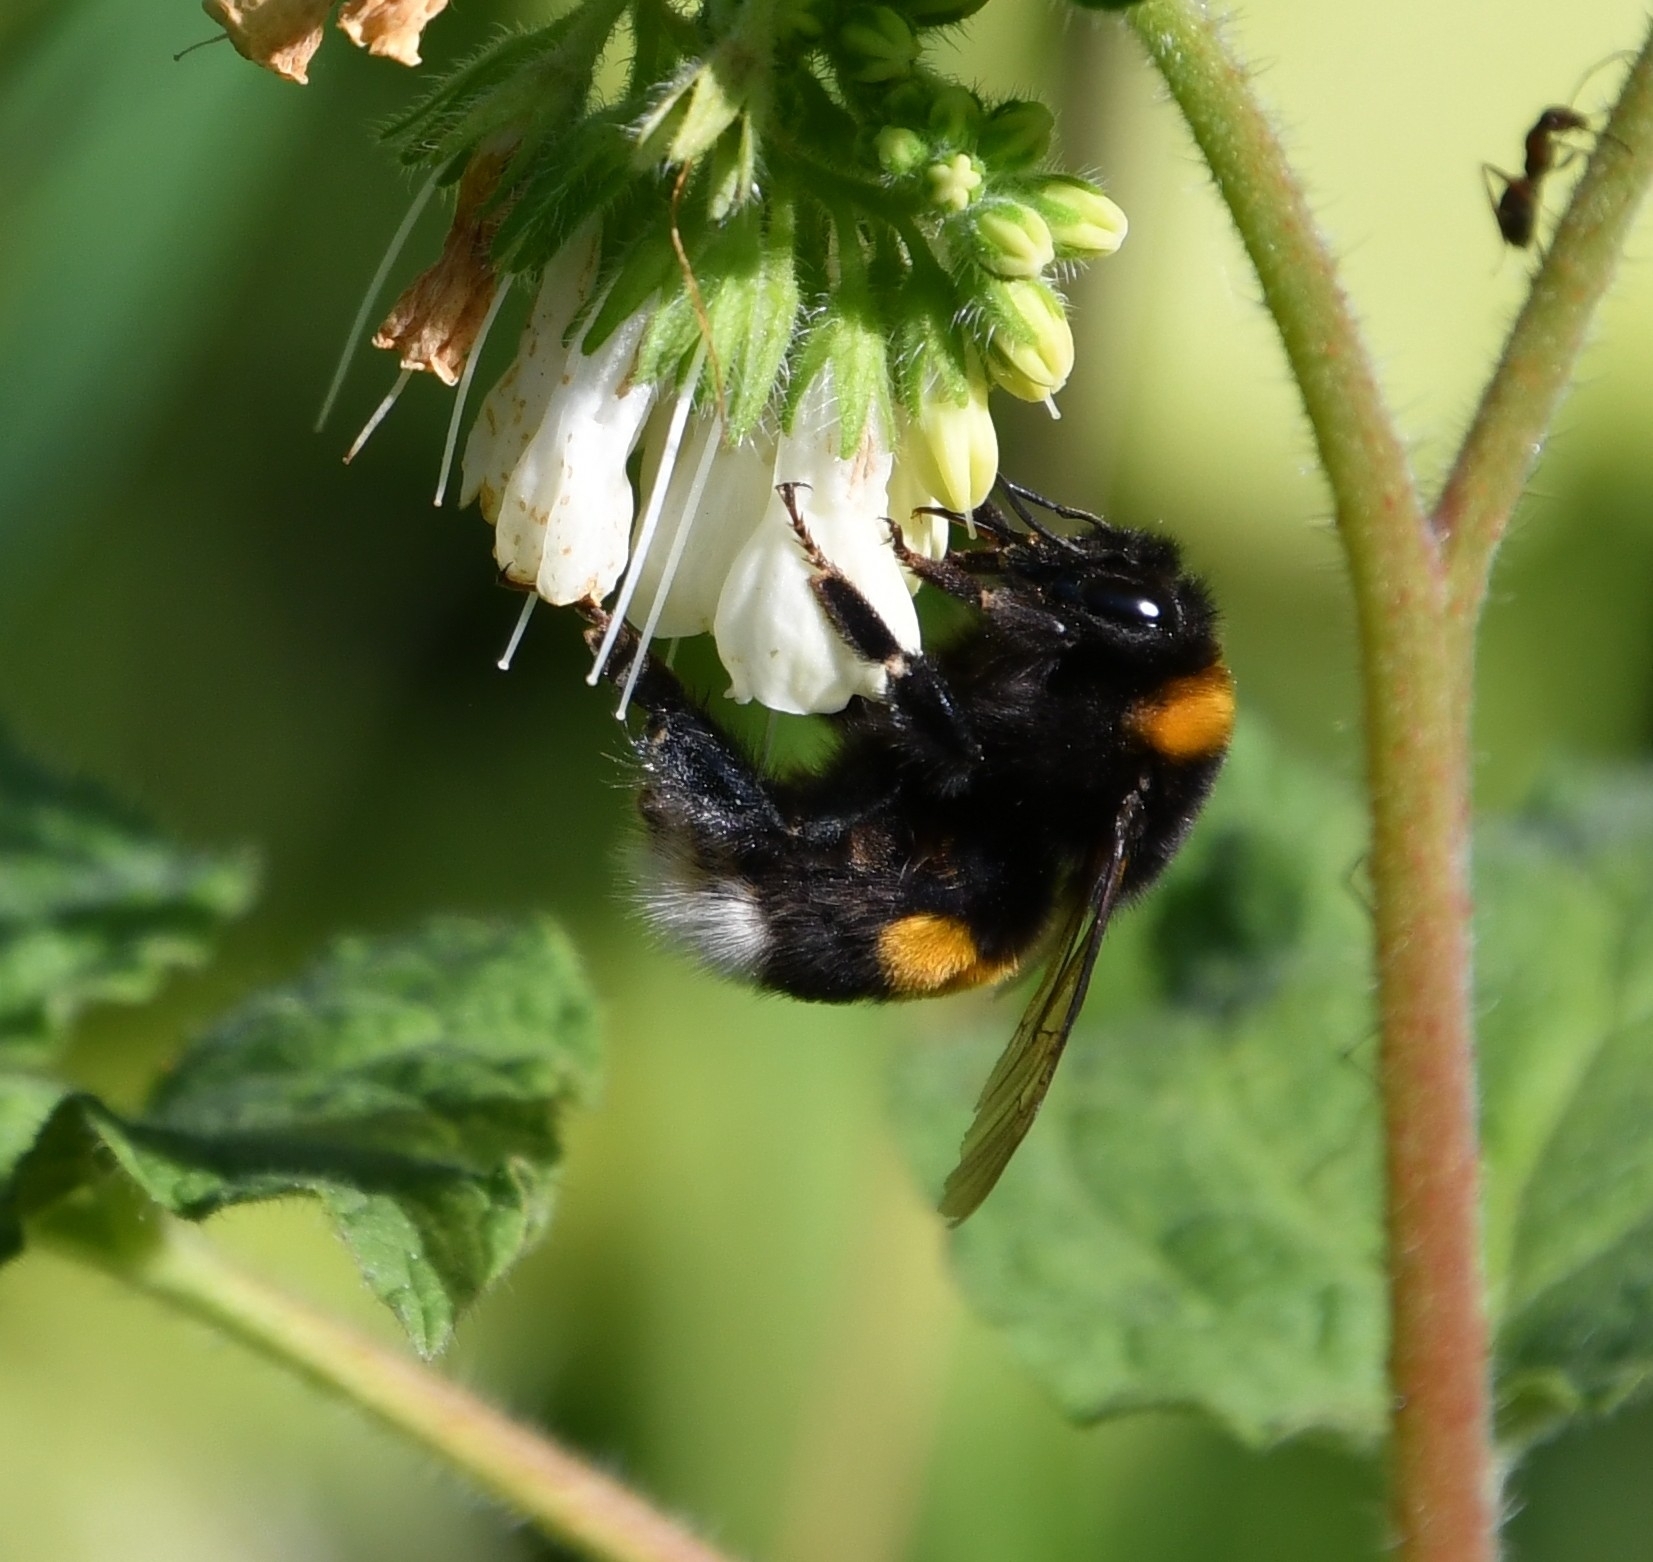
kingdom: Animalia
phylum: Arthropoda
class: Insecta
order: Hymenoptera
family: Apidae
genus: Bombus
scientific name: Bombus
